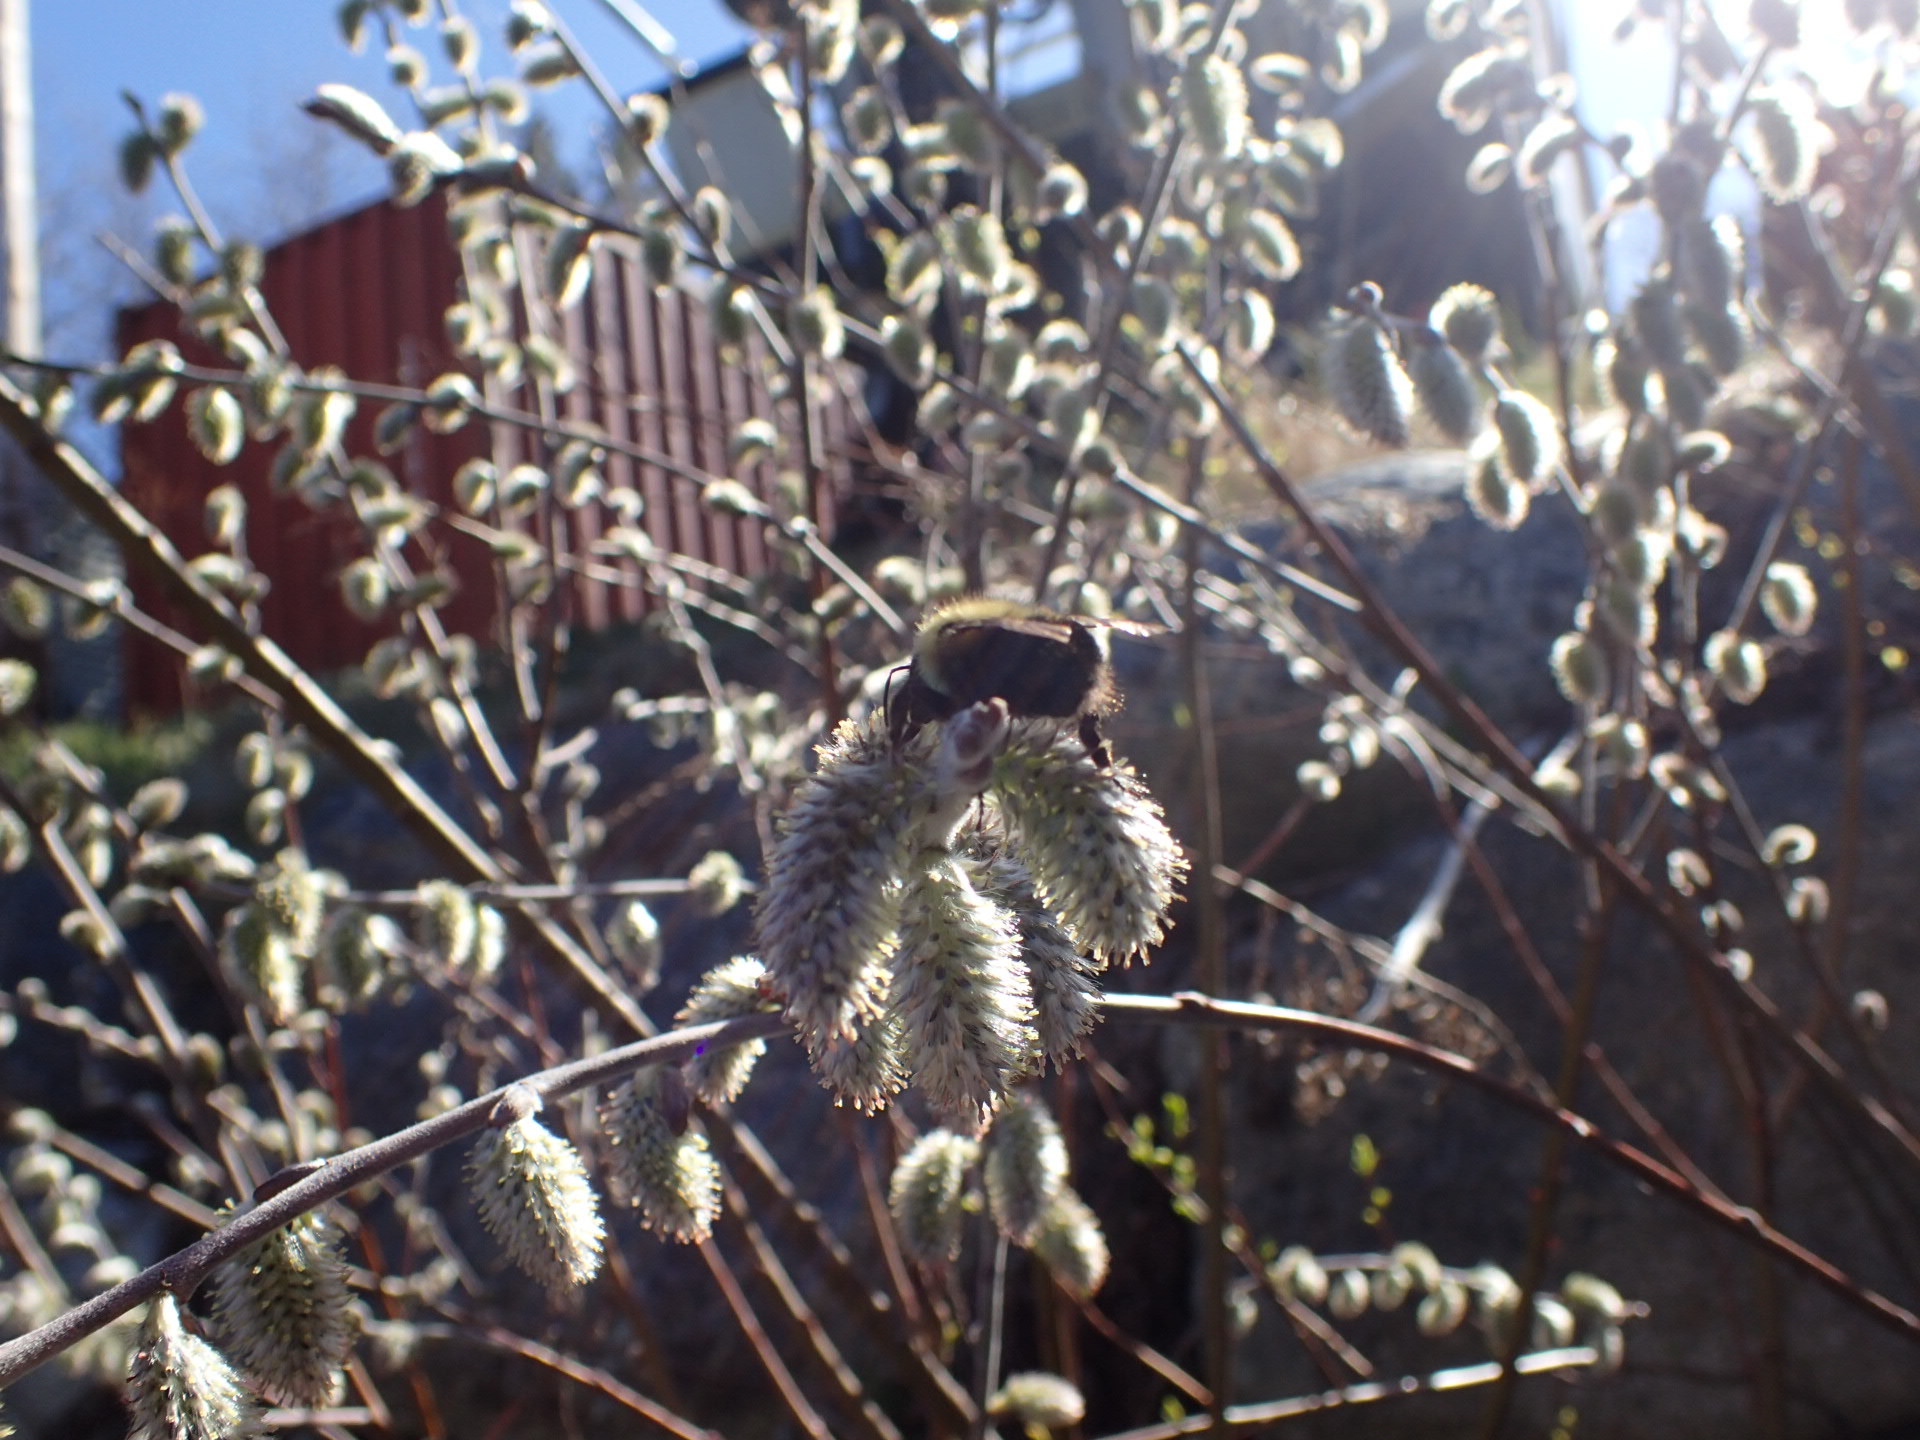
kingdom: Animalia
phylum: Arthropoda
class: Insecta
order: Hymenoptera
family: Apidae
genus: Pyrobombus
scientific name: Pyrobombus
